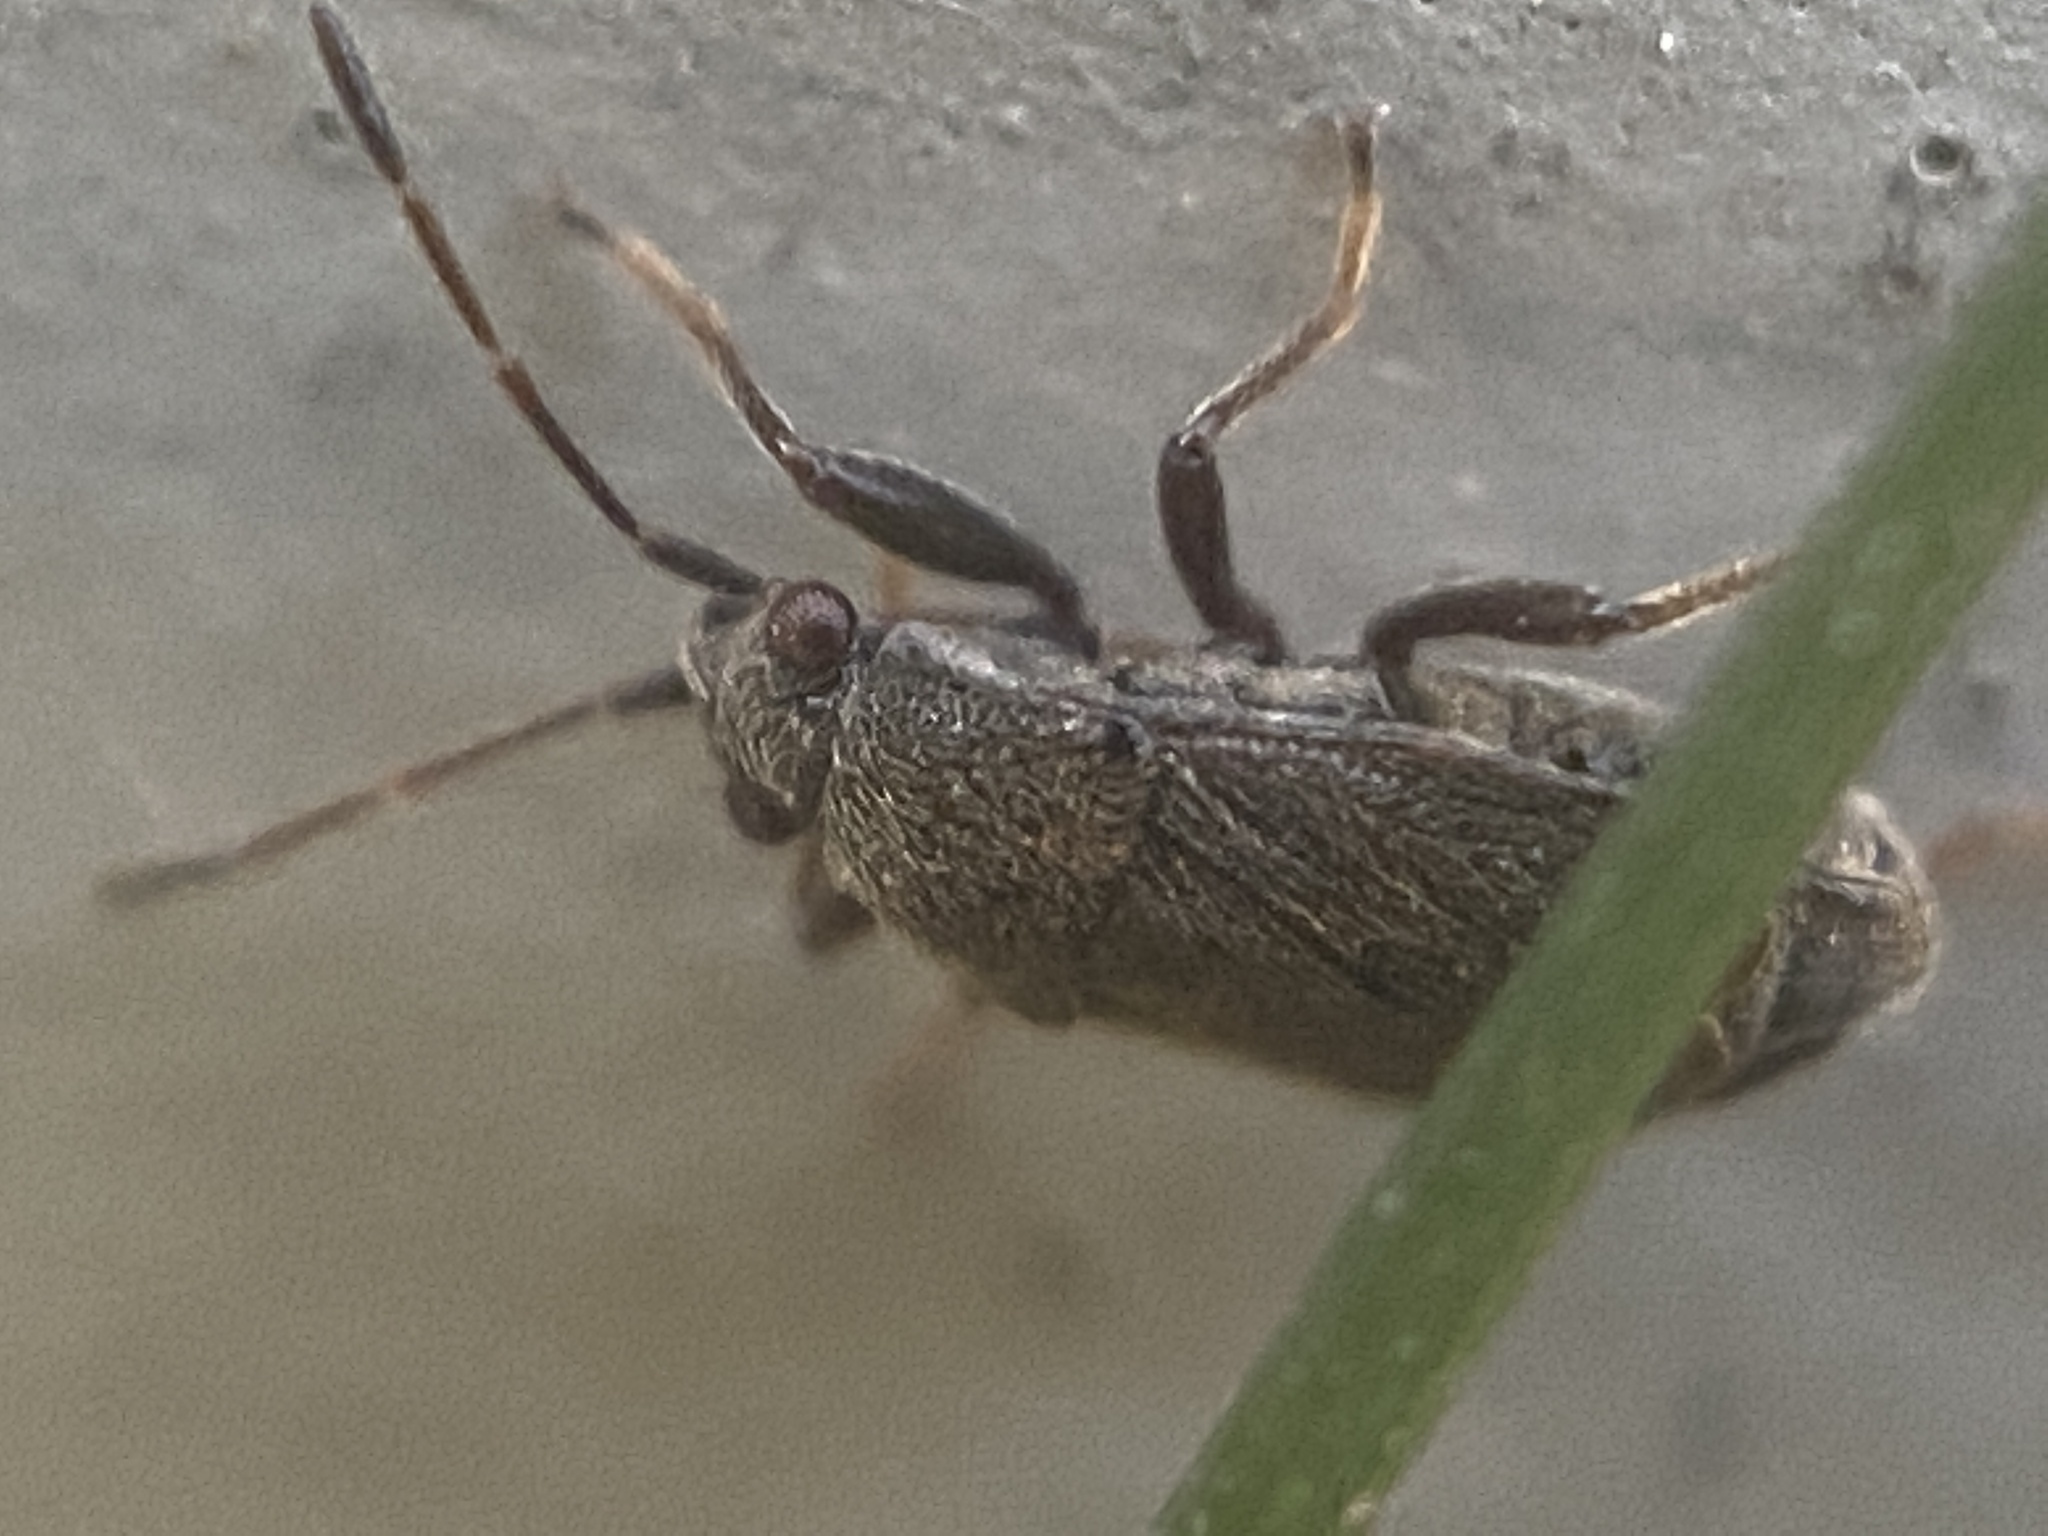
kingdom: Animalia
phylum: Arthropoda
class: Insecta
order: Hemiptera
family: Rhyparochromidae
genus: Stygnocoris
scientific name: Stygnocoris rusticus
